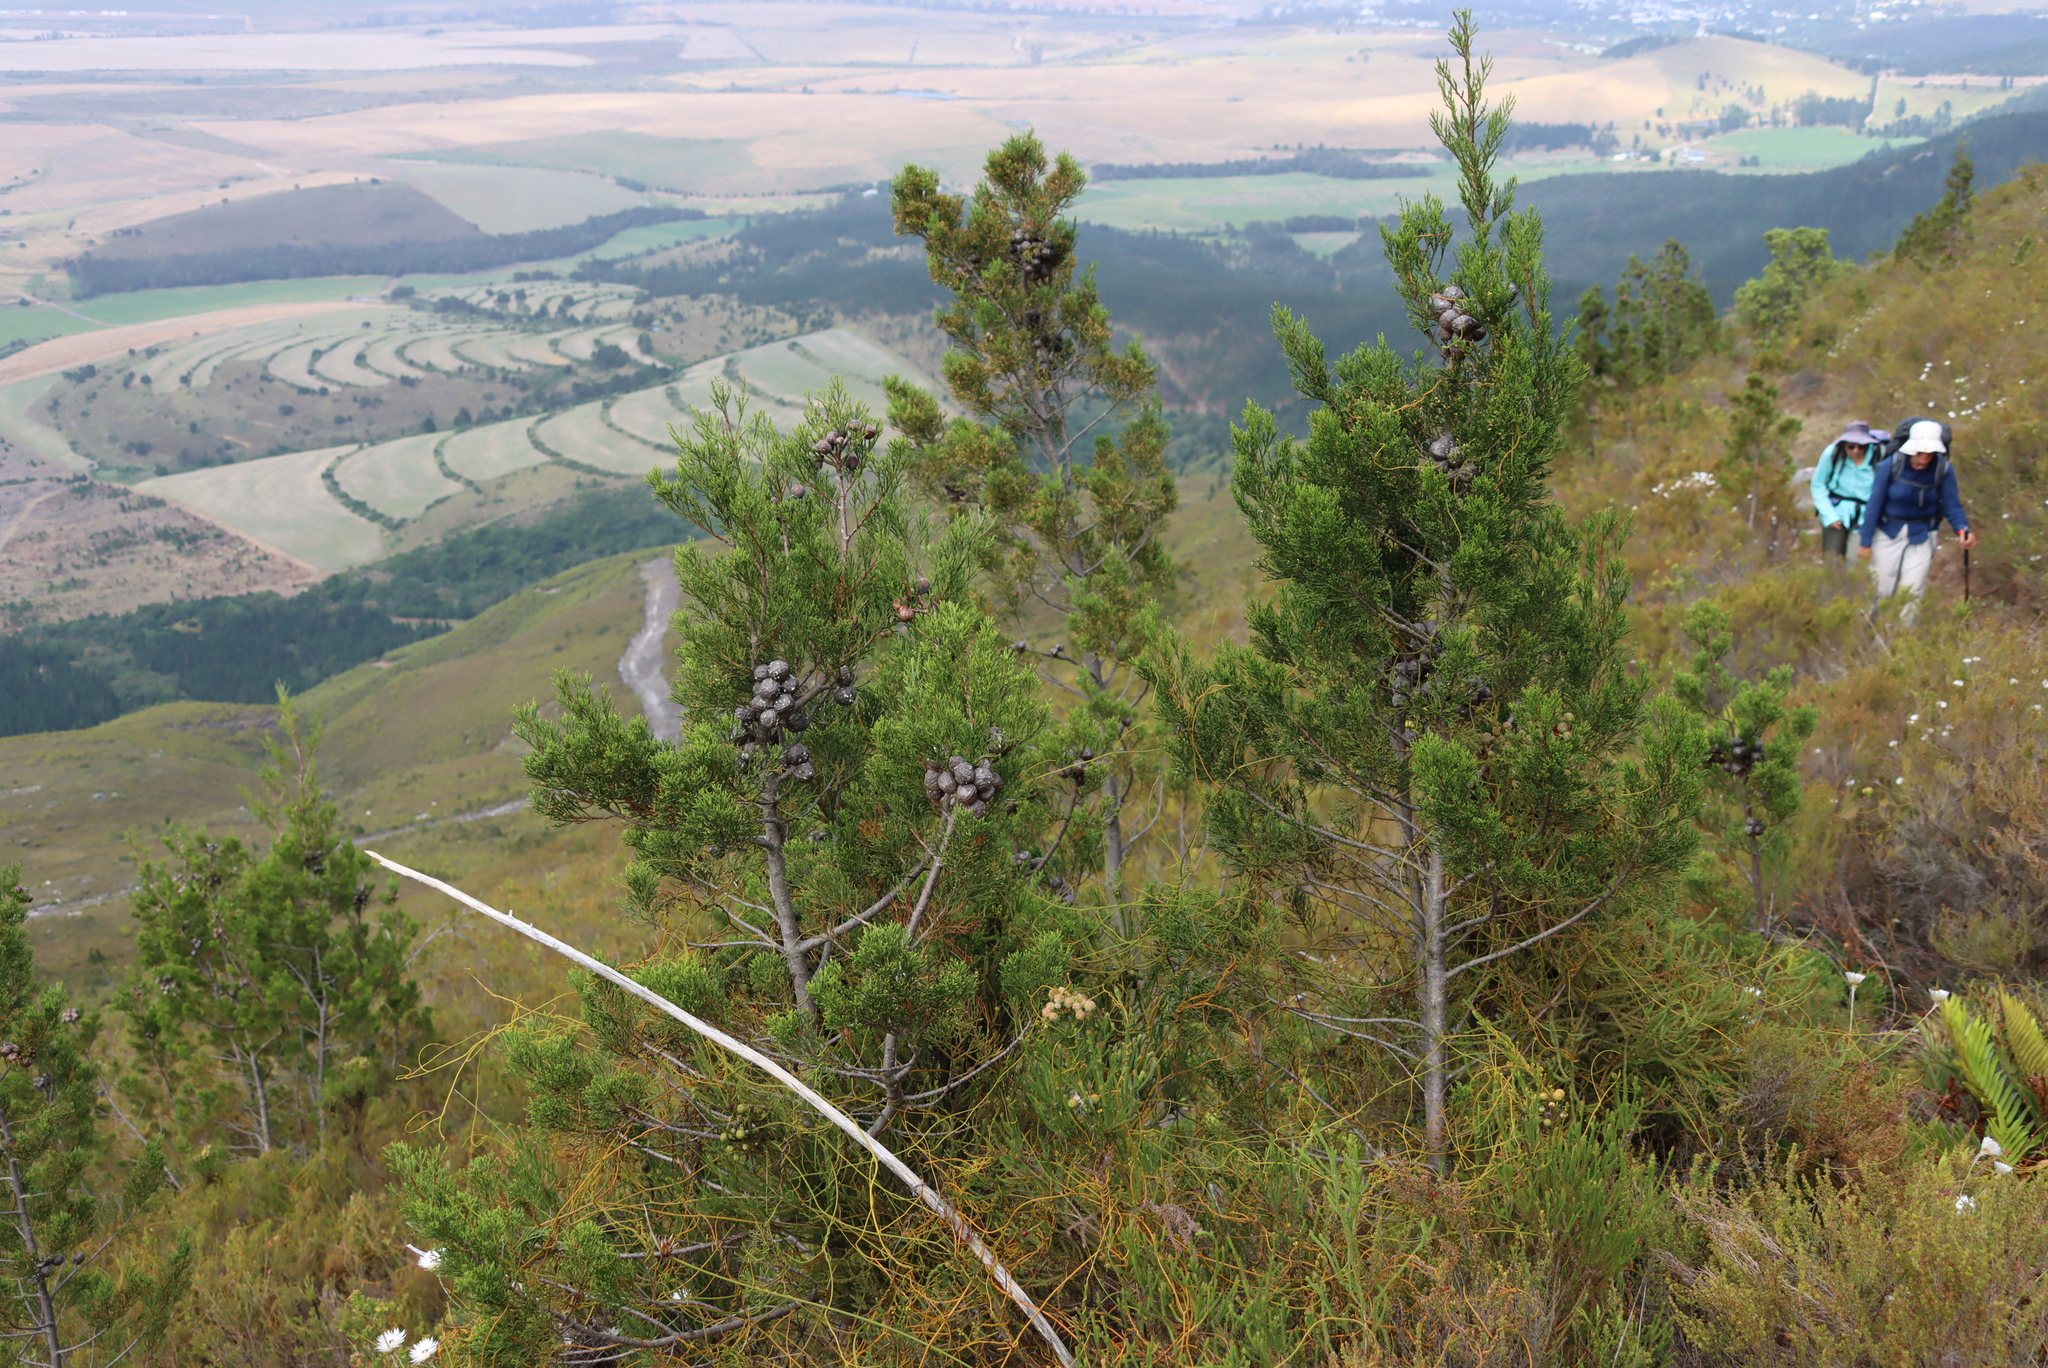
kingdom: Plantae
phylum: Tracheophyta
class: Pinopsida
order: Pinales
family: Cupressaceae
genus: Widdringtonia
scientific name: Widdringtonia nodiflora
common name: Cape cypress
